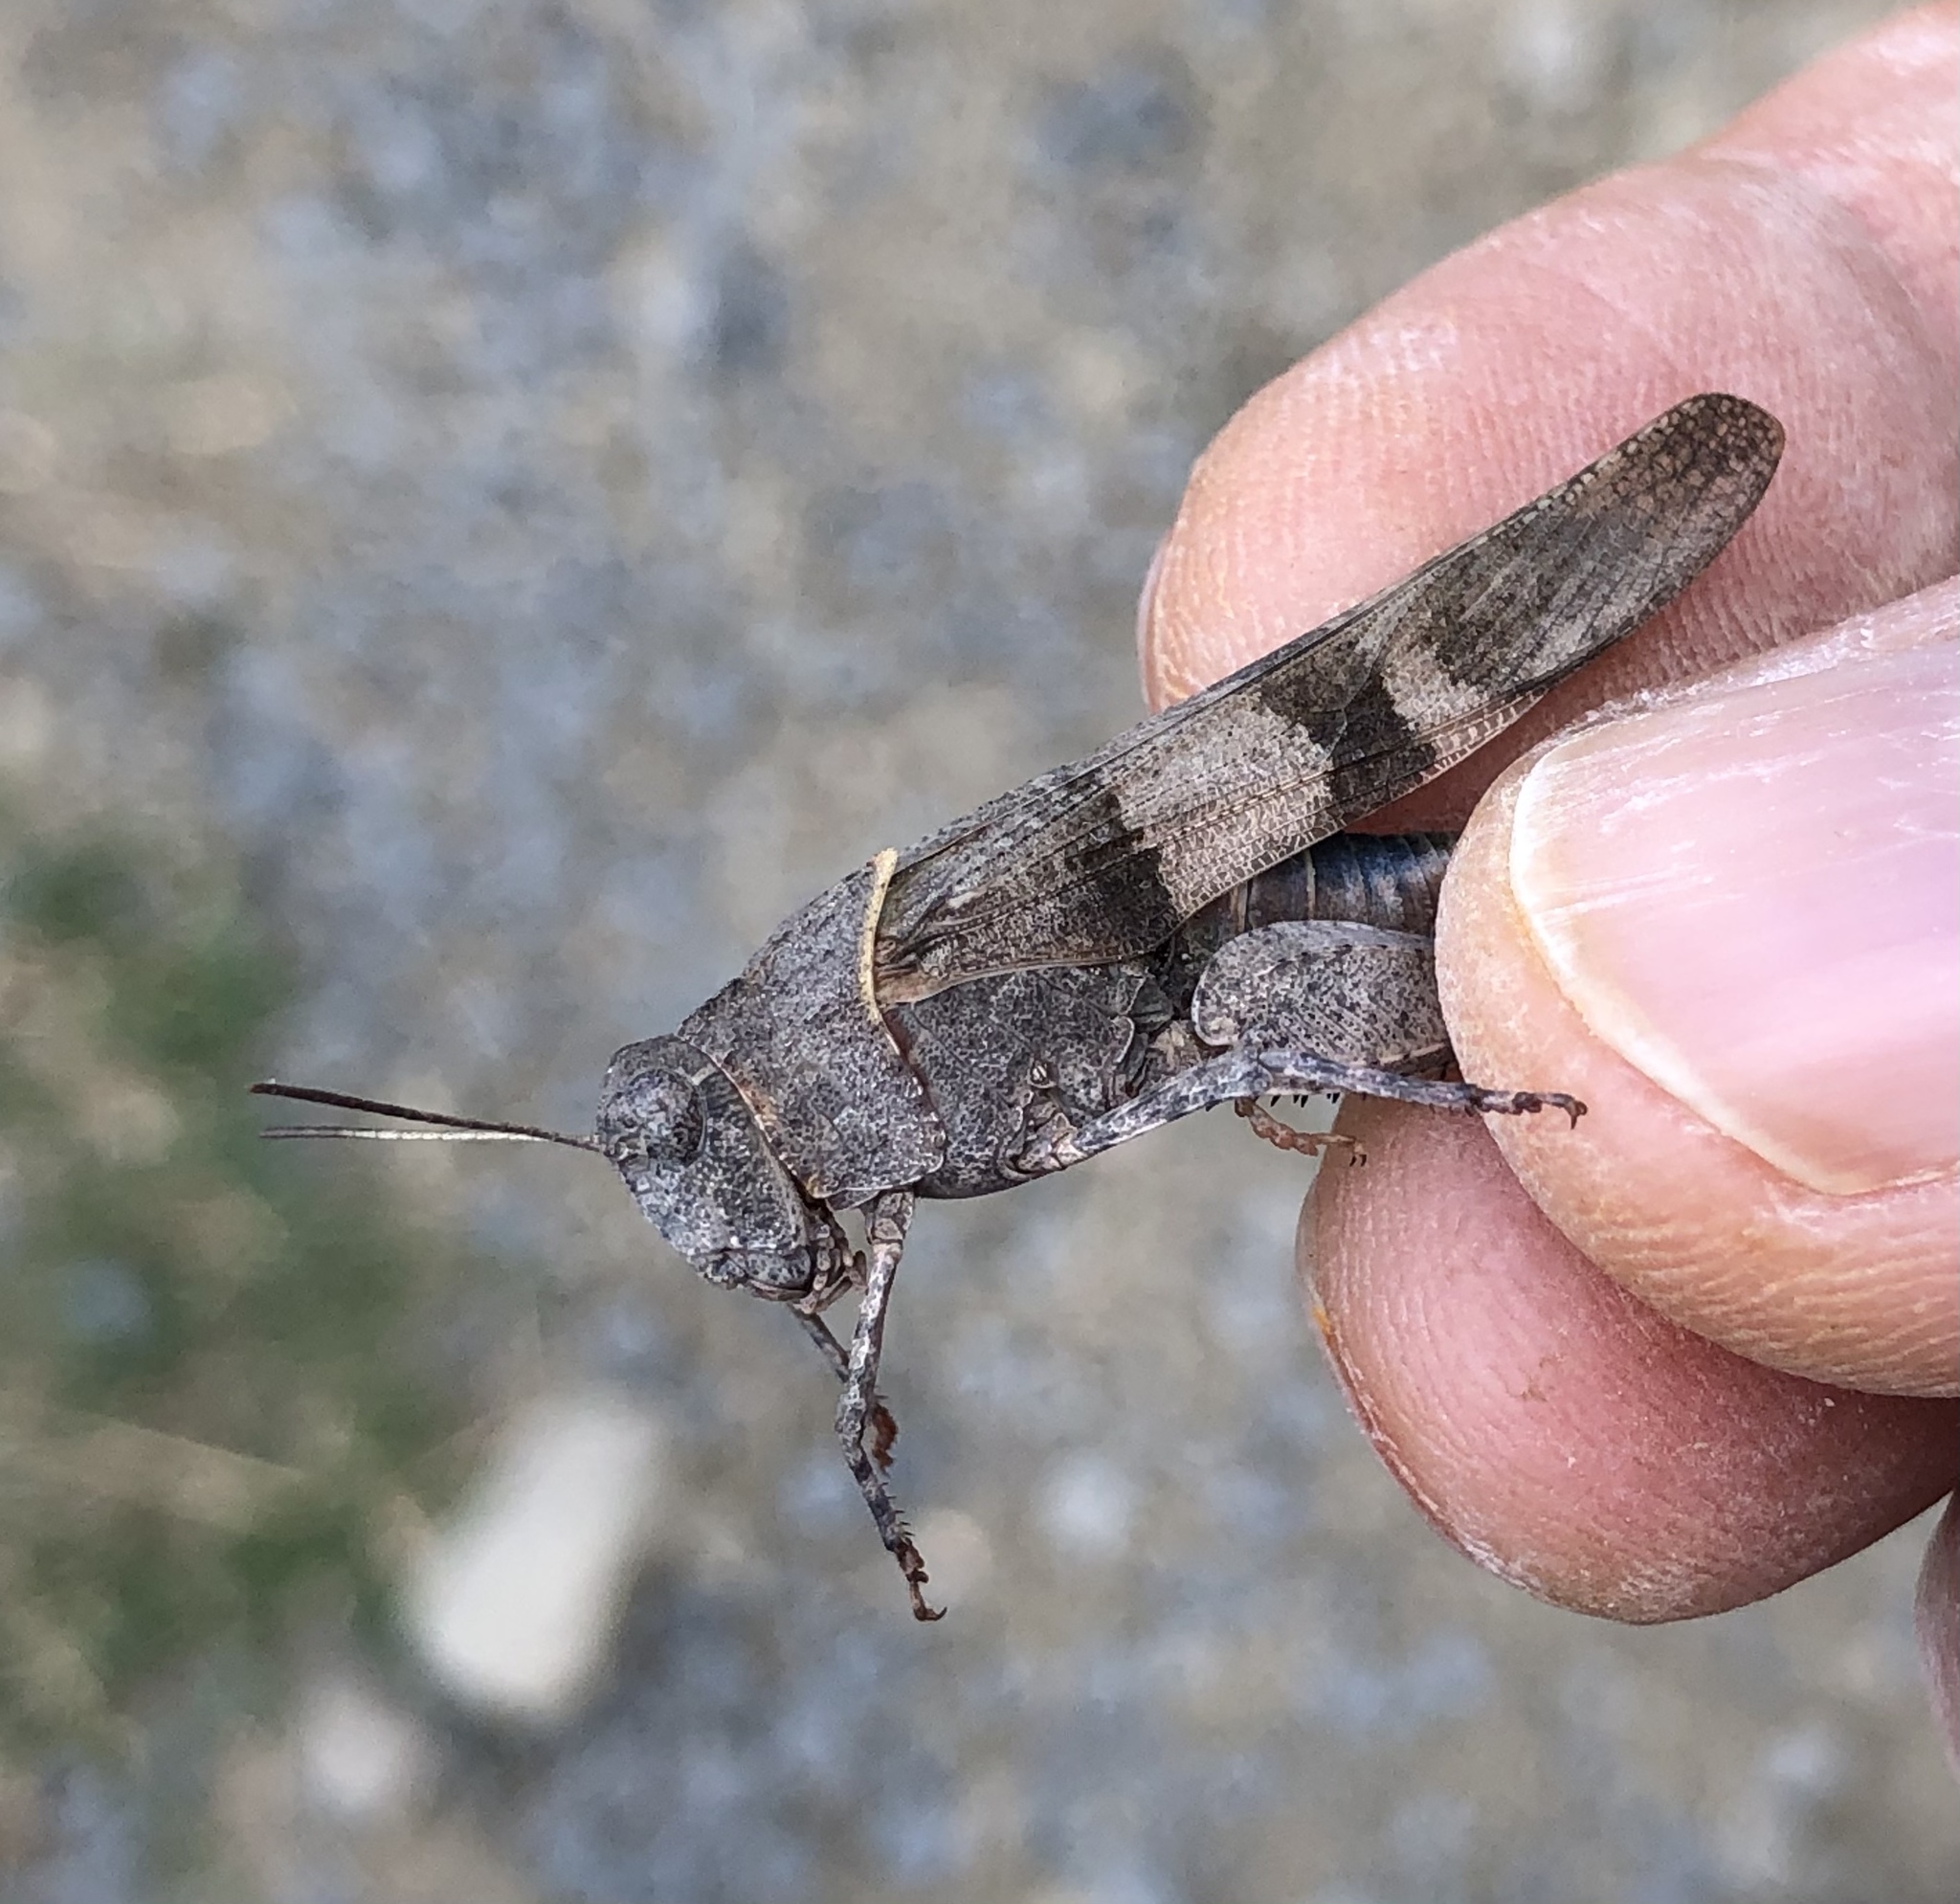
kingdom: Animalia
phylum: Arthropoda
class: Insecta
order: Orthoptera
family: Acrididae
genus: Oedipoda
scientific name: Oedipoda caerulescens
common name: Blue-winged grasshopper
